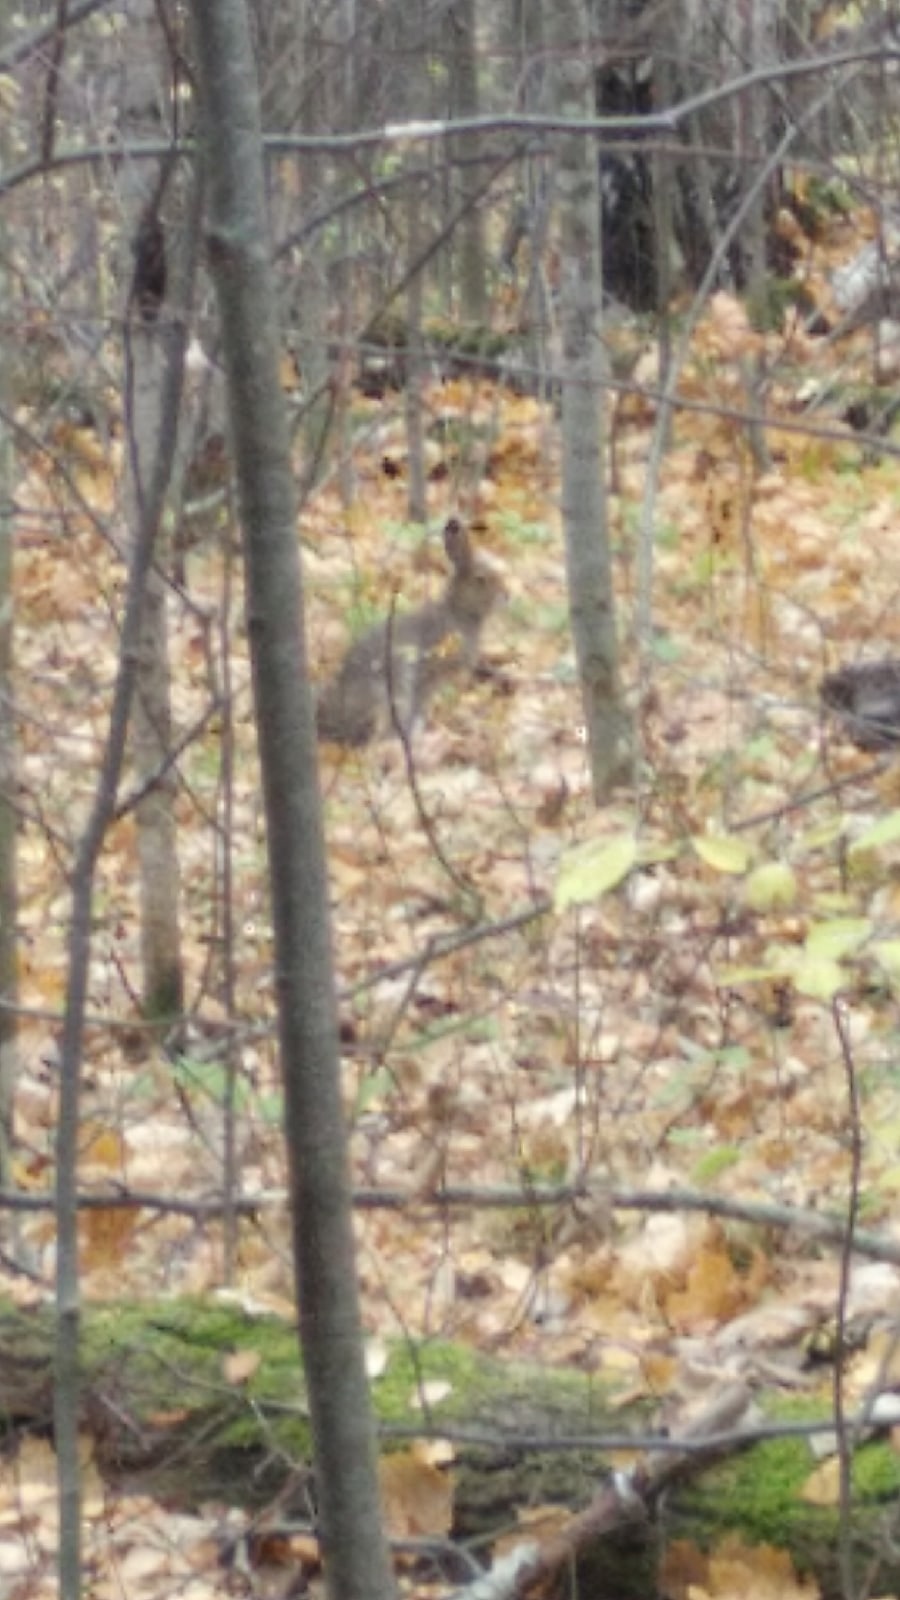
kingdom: Animalia
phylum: Chordata
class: Mammalia
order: Lagomorpha
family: Leporidae
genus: Lepus
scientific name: Lepus timidus
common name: Mountain hare
